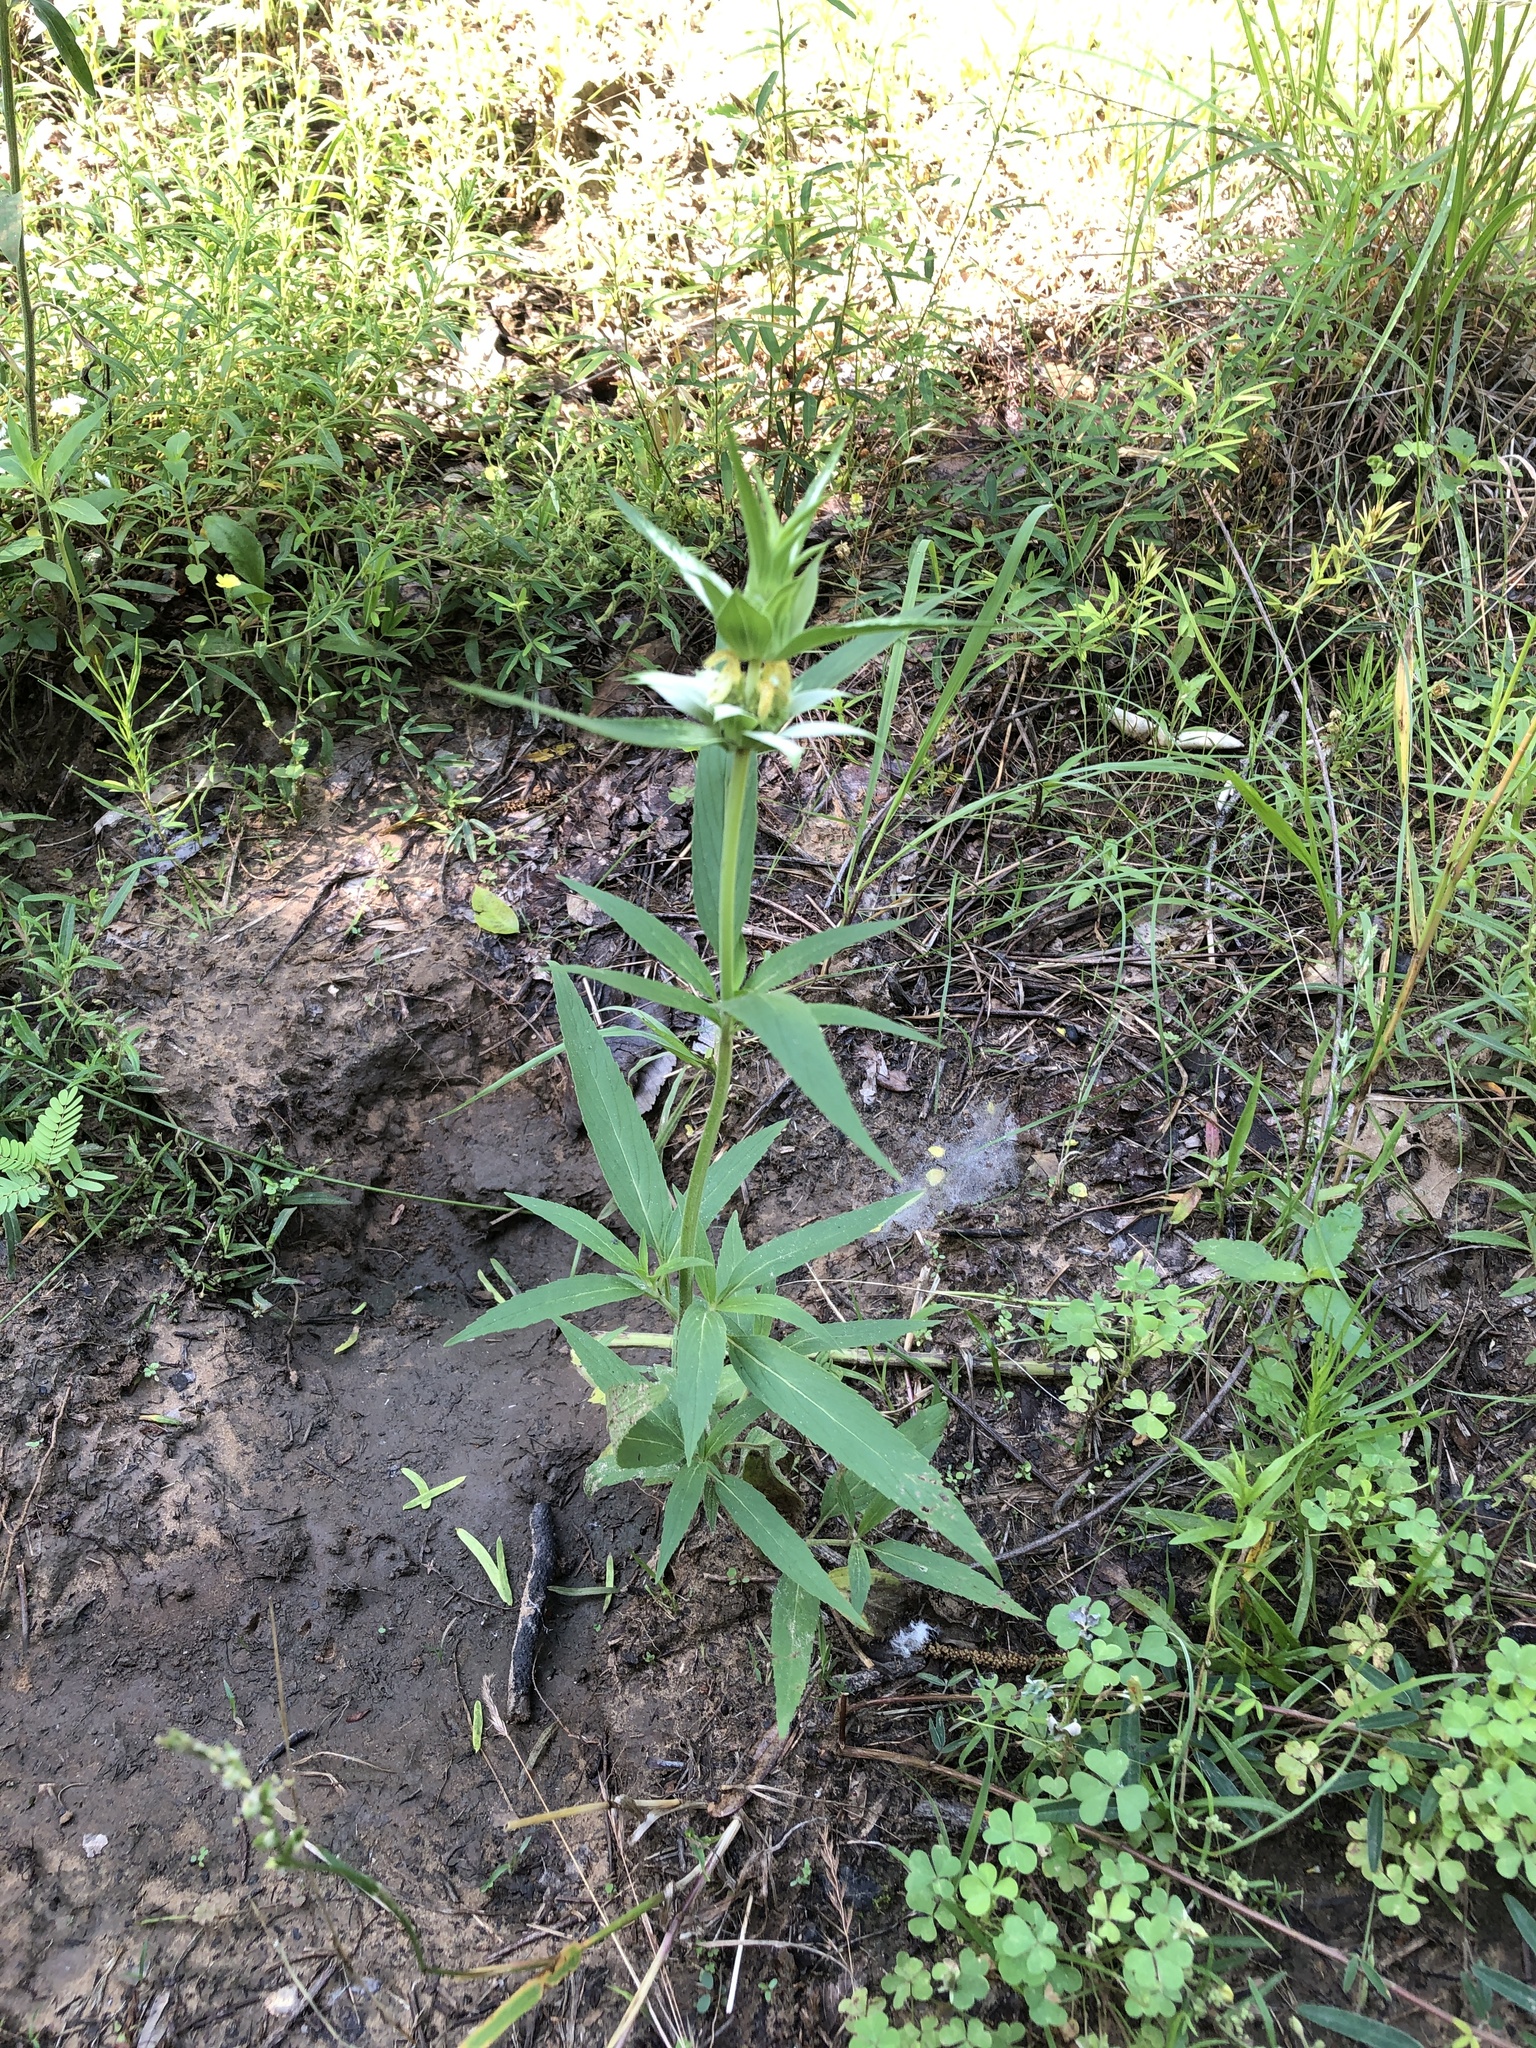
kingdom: Plantae
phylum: Tracheophyta
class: Magnoliopsida
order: Lamiales
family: Lamiaceae
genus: Monarda
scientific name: Monarda punctata
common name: Dotted monarda
